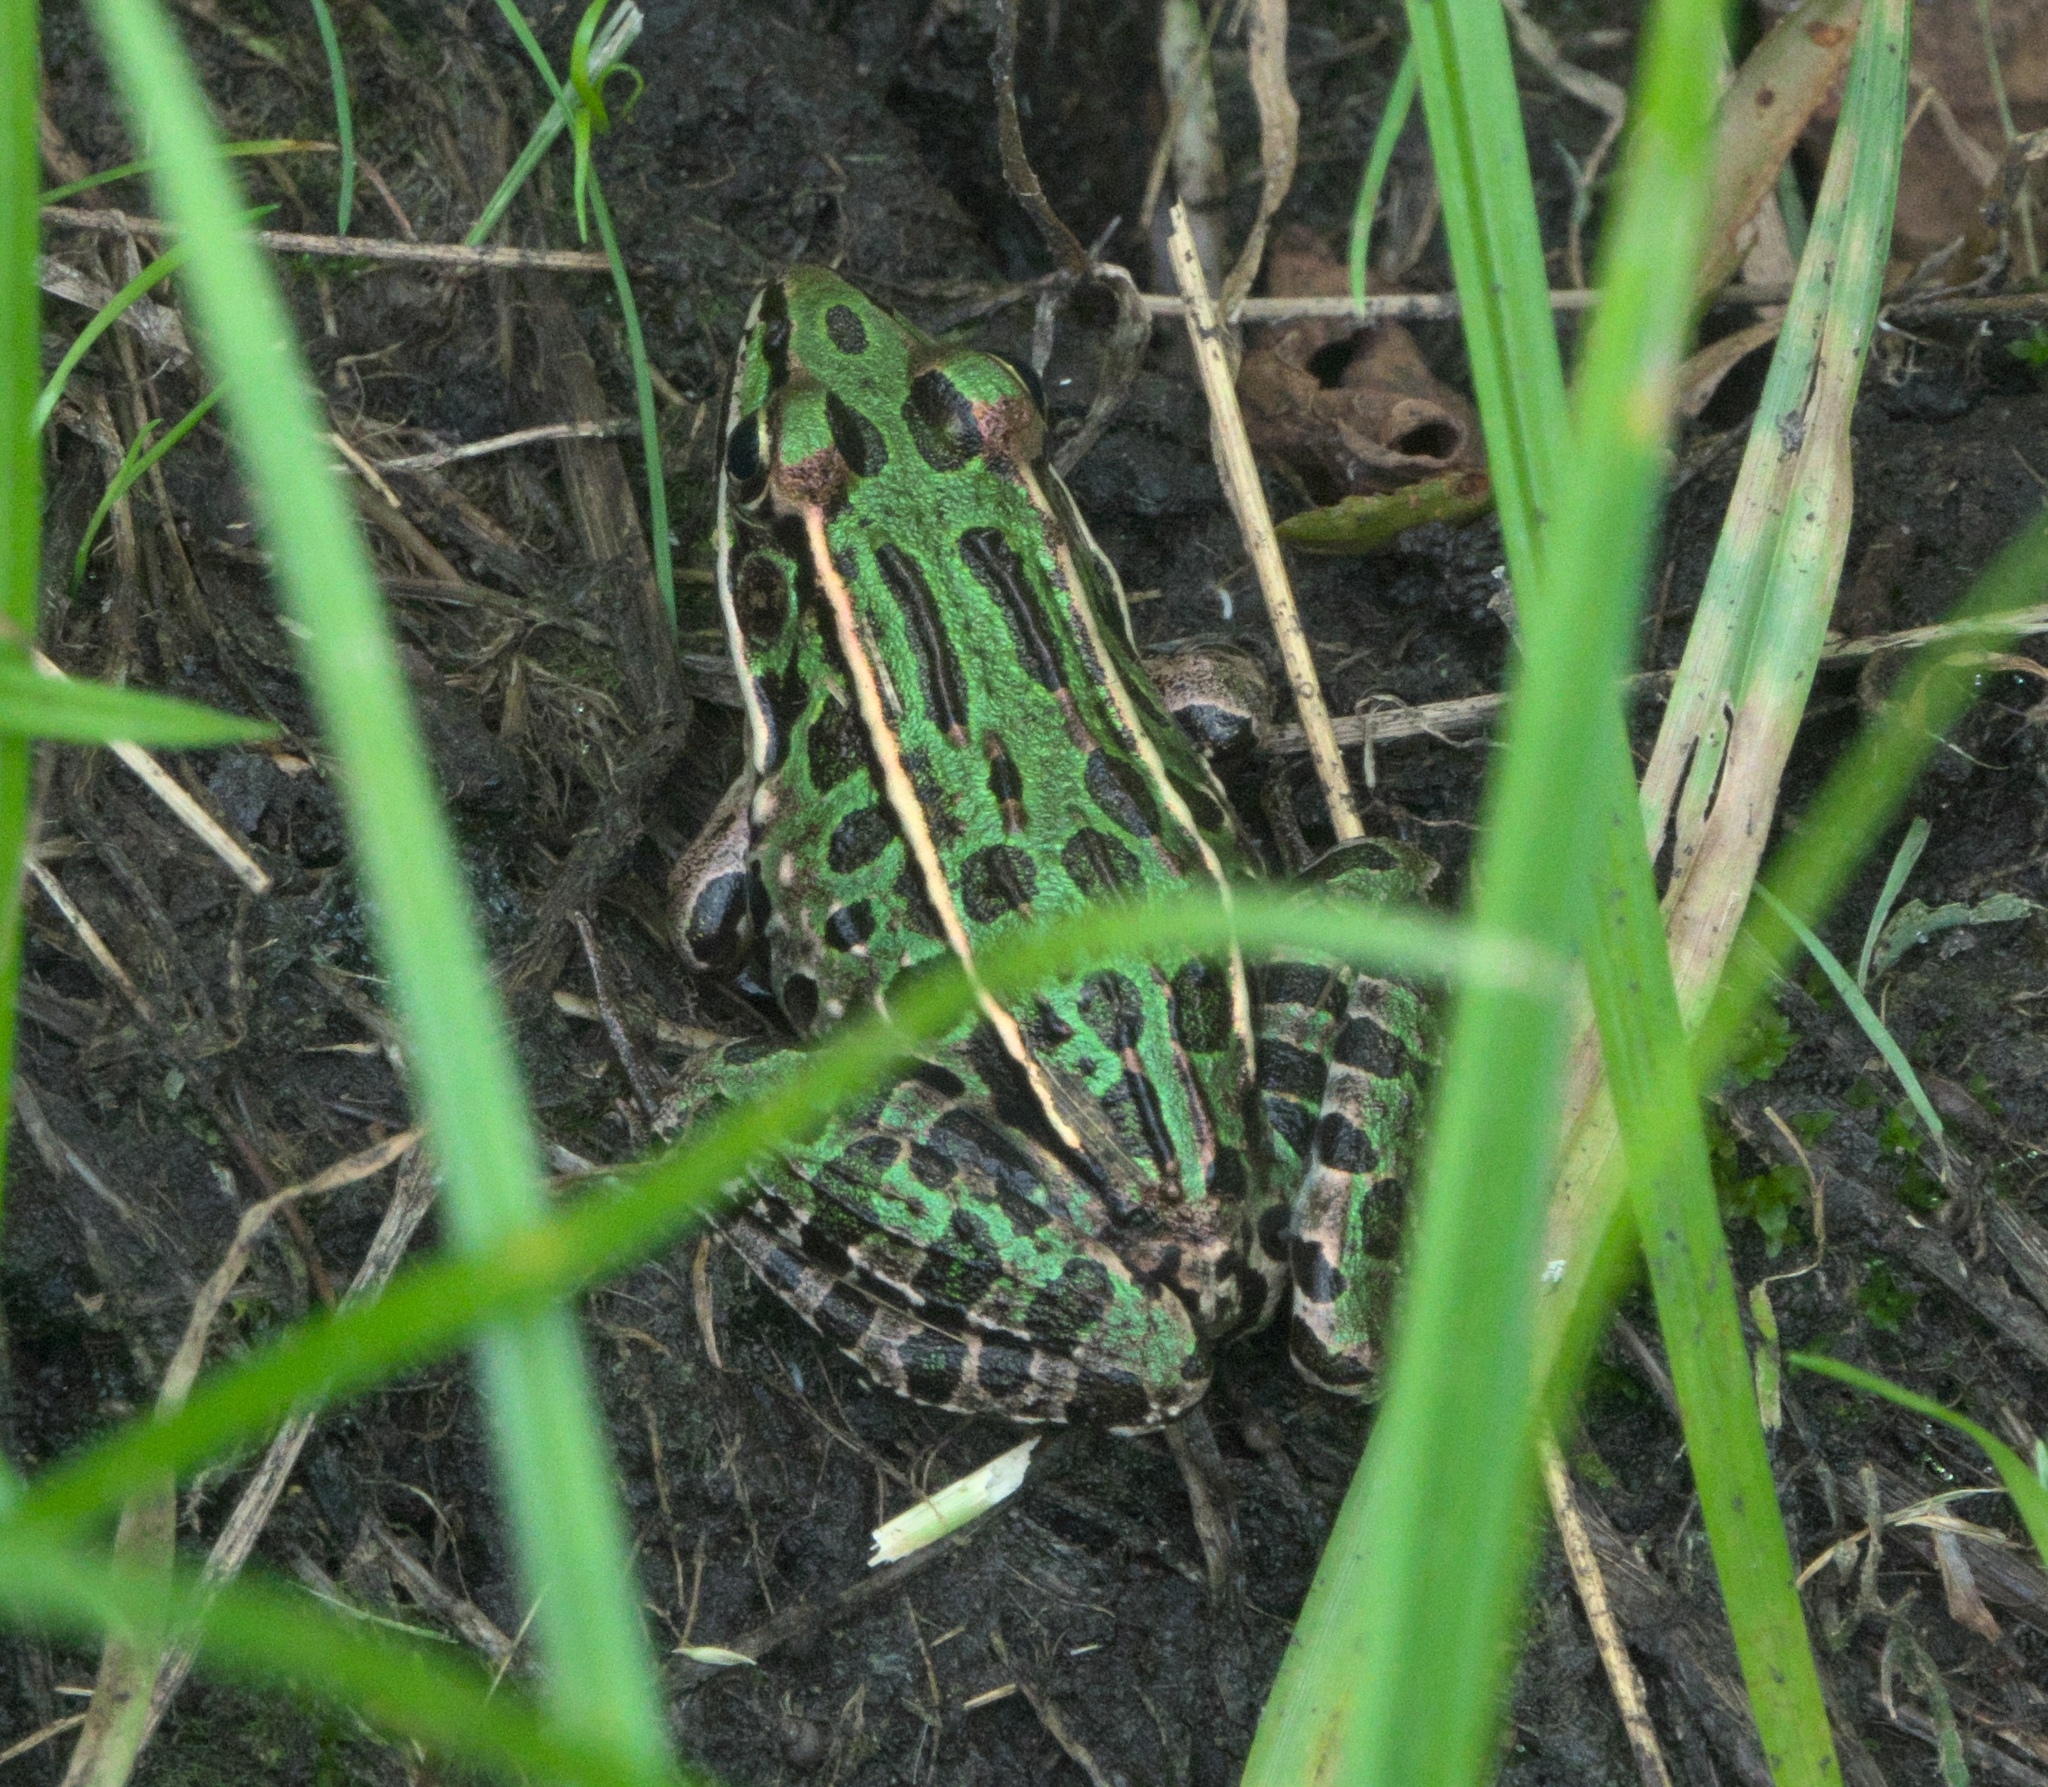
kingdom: Animalia
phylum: Chordata
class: Amphibia
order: Anura
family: Ranidae
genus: Lithobates
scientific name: Lithobates pipiens
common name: Northern leopard frog
